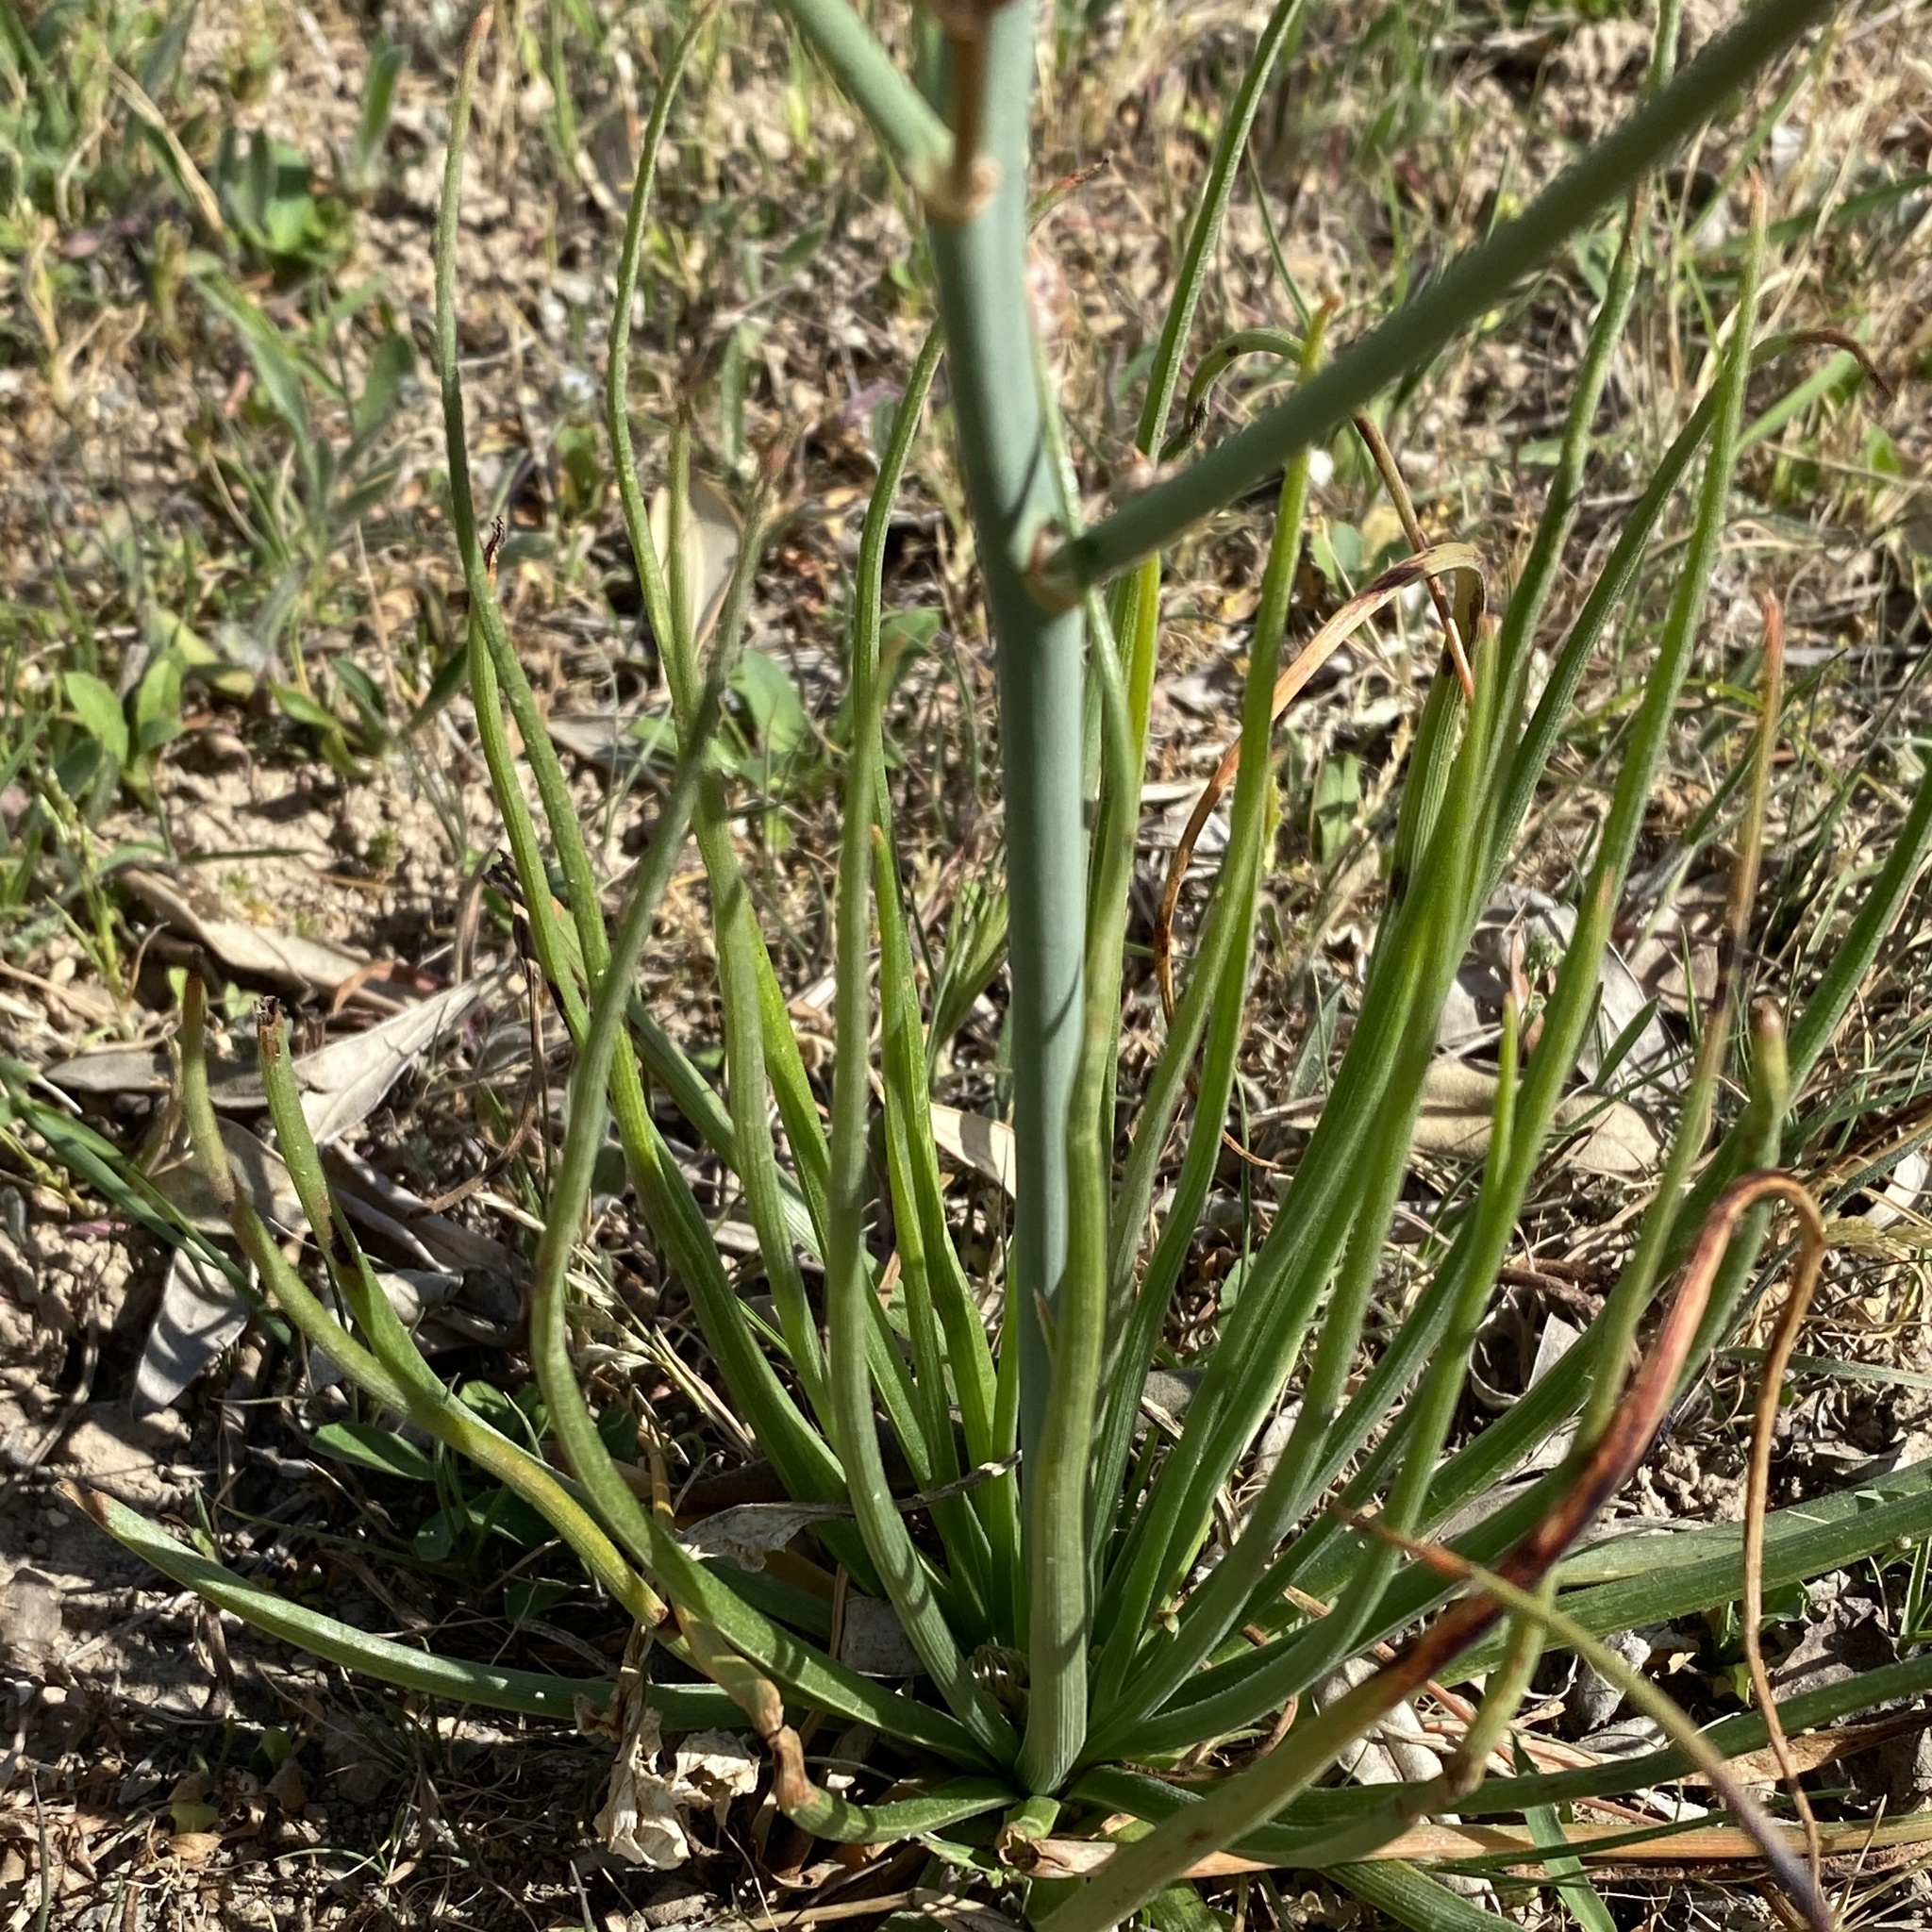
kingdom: Plantae
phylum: Tracheophyta
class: Liliopsida
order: Asparagales
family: Asphodelaceae
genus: Asphodelus
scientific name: Asphodelus fistulosus
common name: Onionweed
